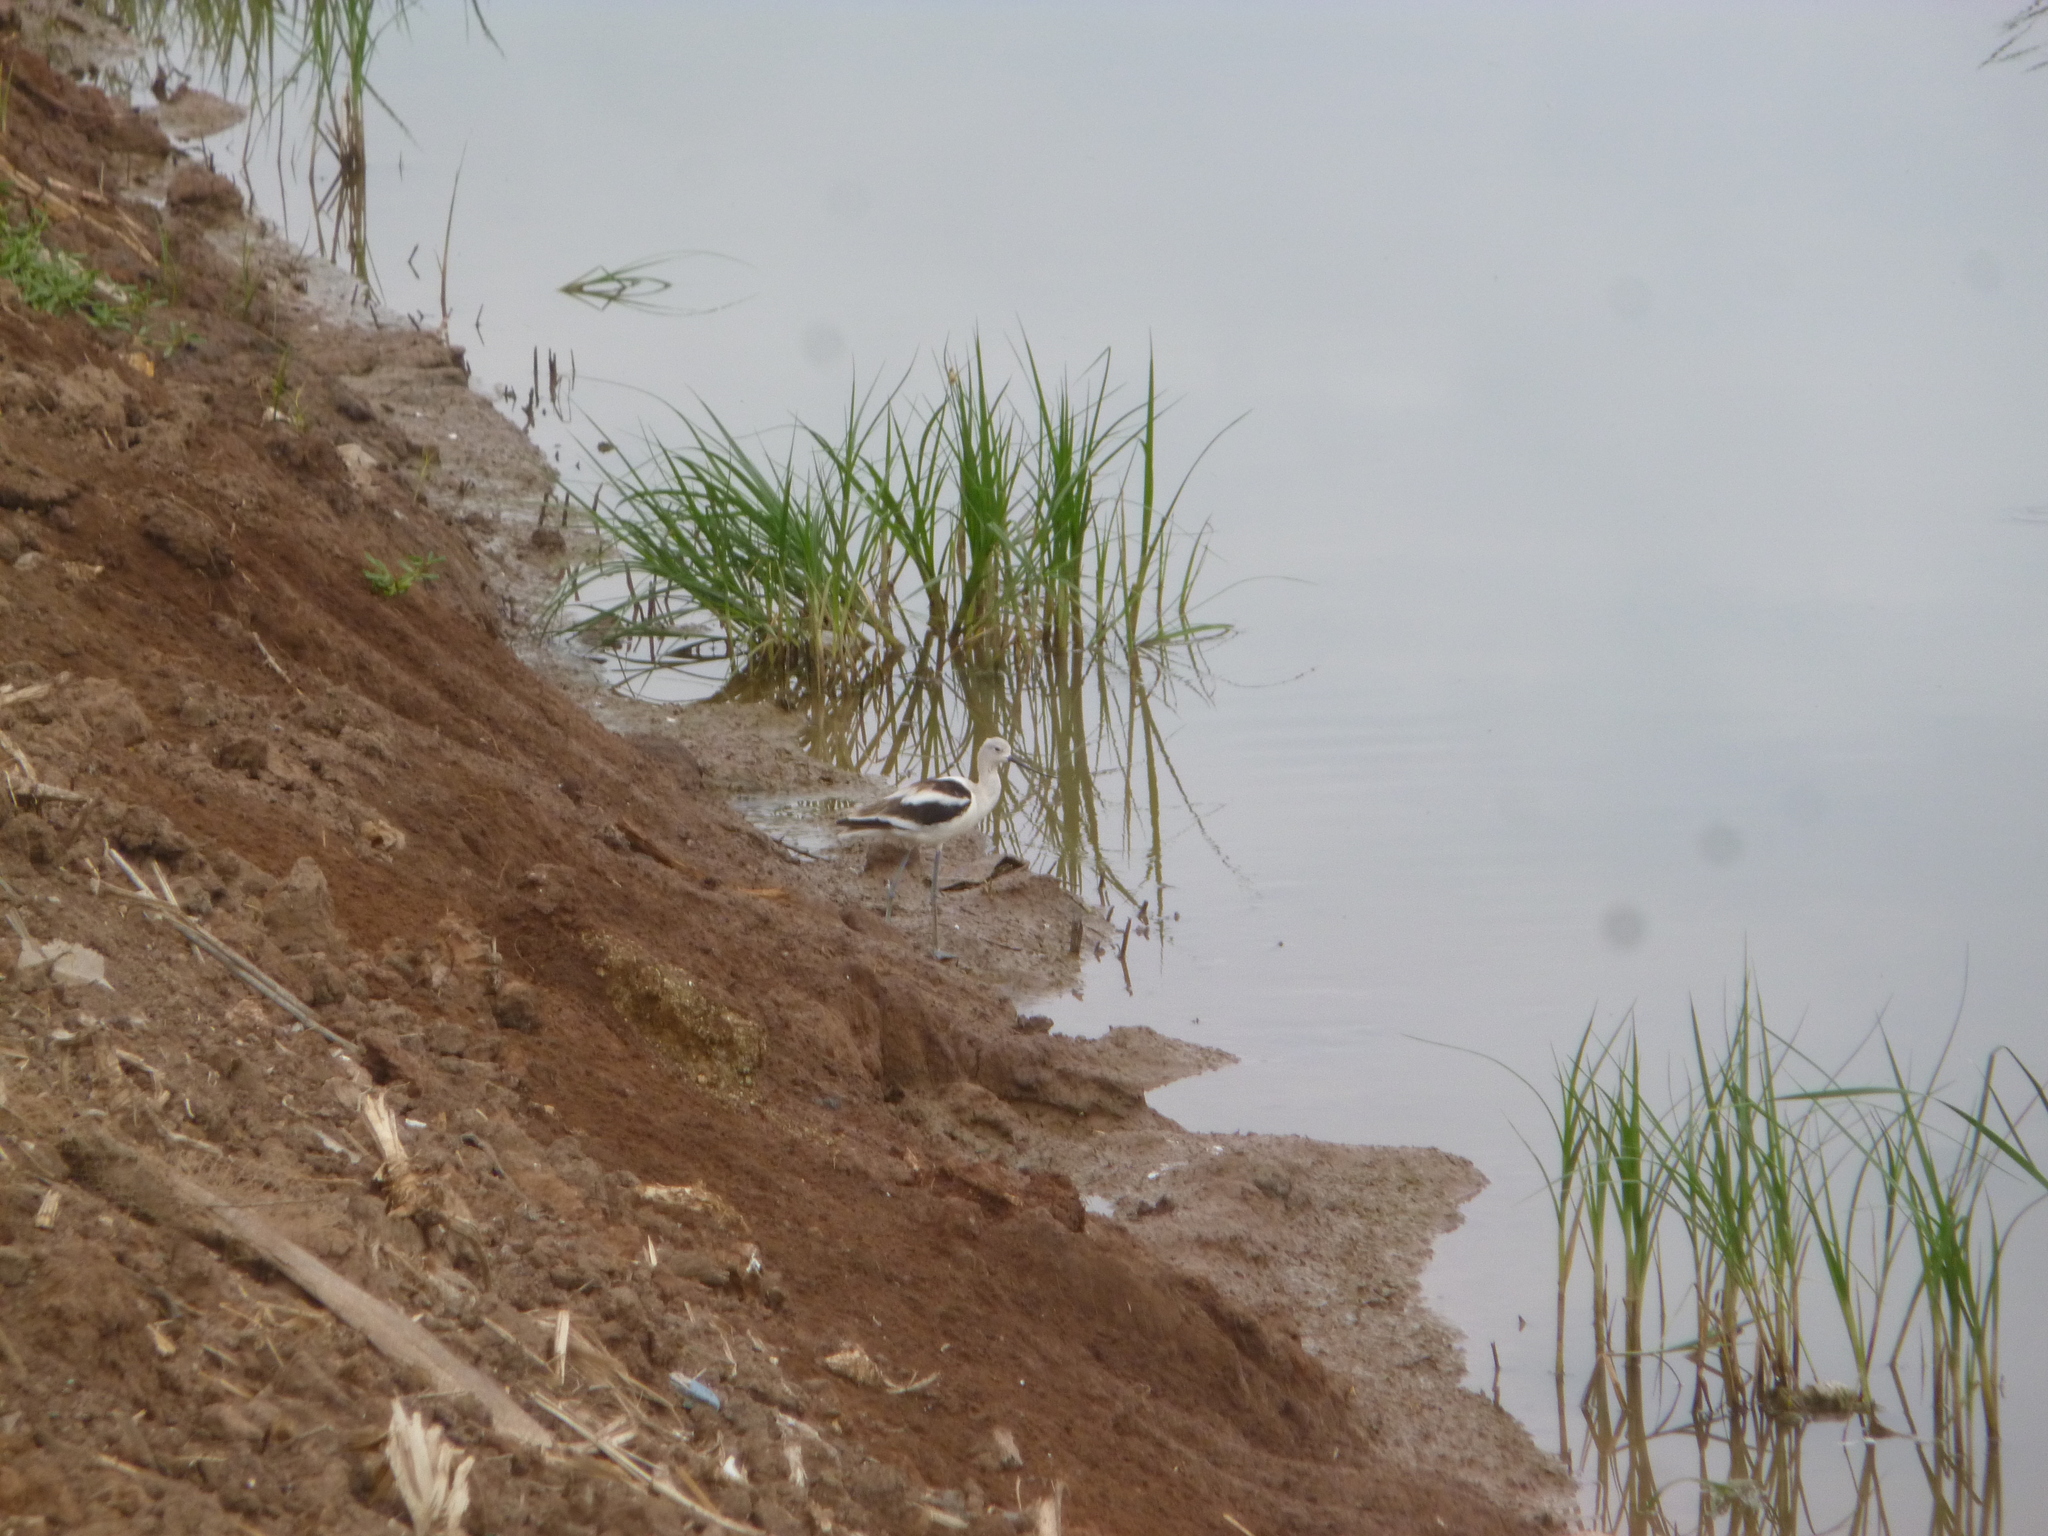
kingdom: Animalia
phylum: Chordata
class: Aves
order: Charadriiformes
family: Recurvirostridae
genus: Recurvirostra
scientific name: Recurvirostra americana
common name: American avocet
